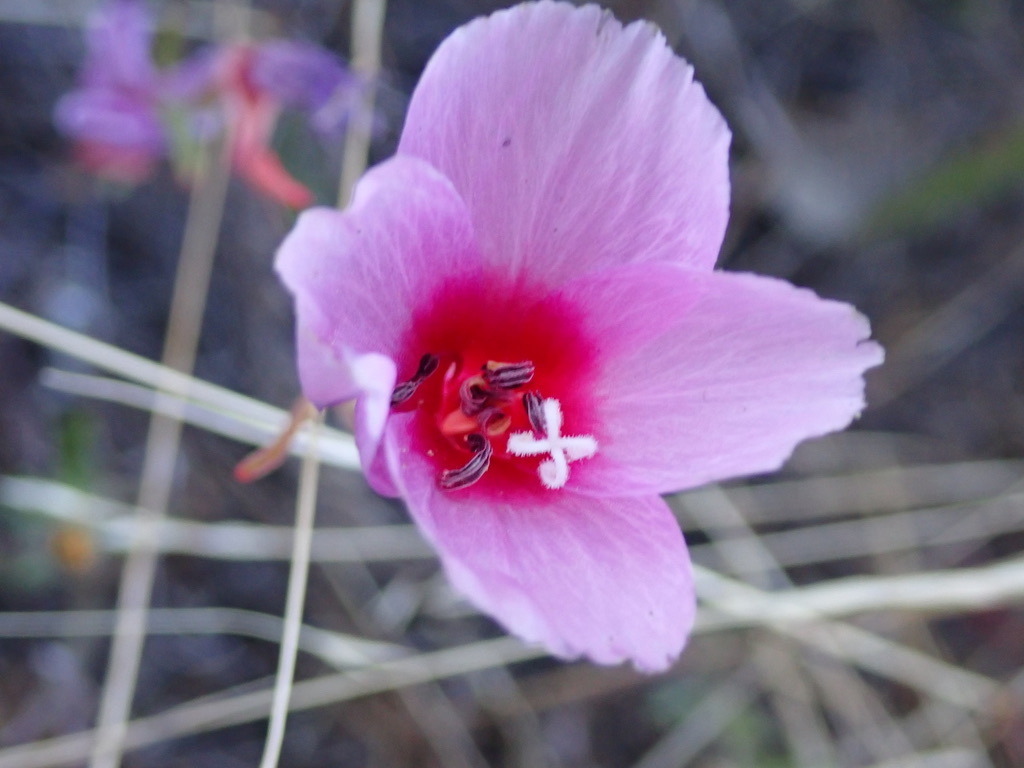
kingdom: Plantae
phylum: Tracheophyta
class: Magnoliopsida
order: Myrtales
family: Onagraceae
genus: Clarkia
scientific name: Clarkia rubicunda
